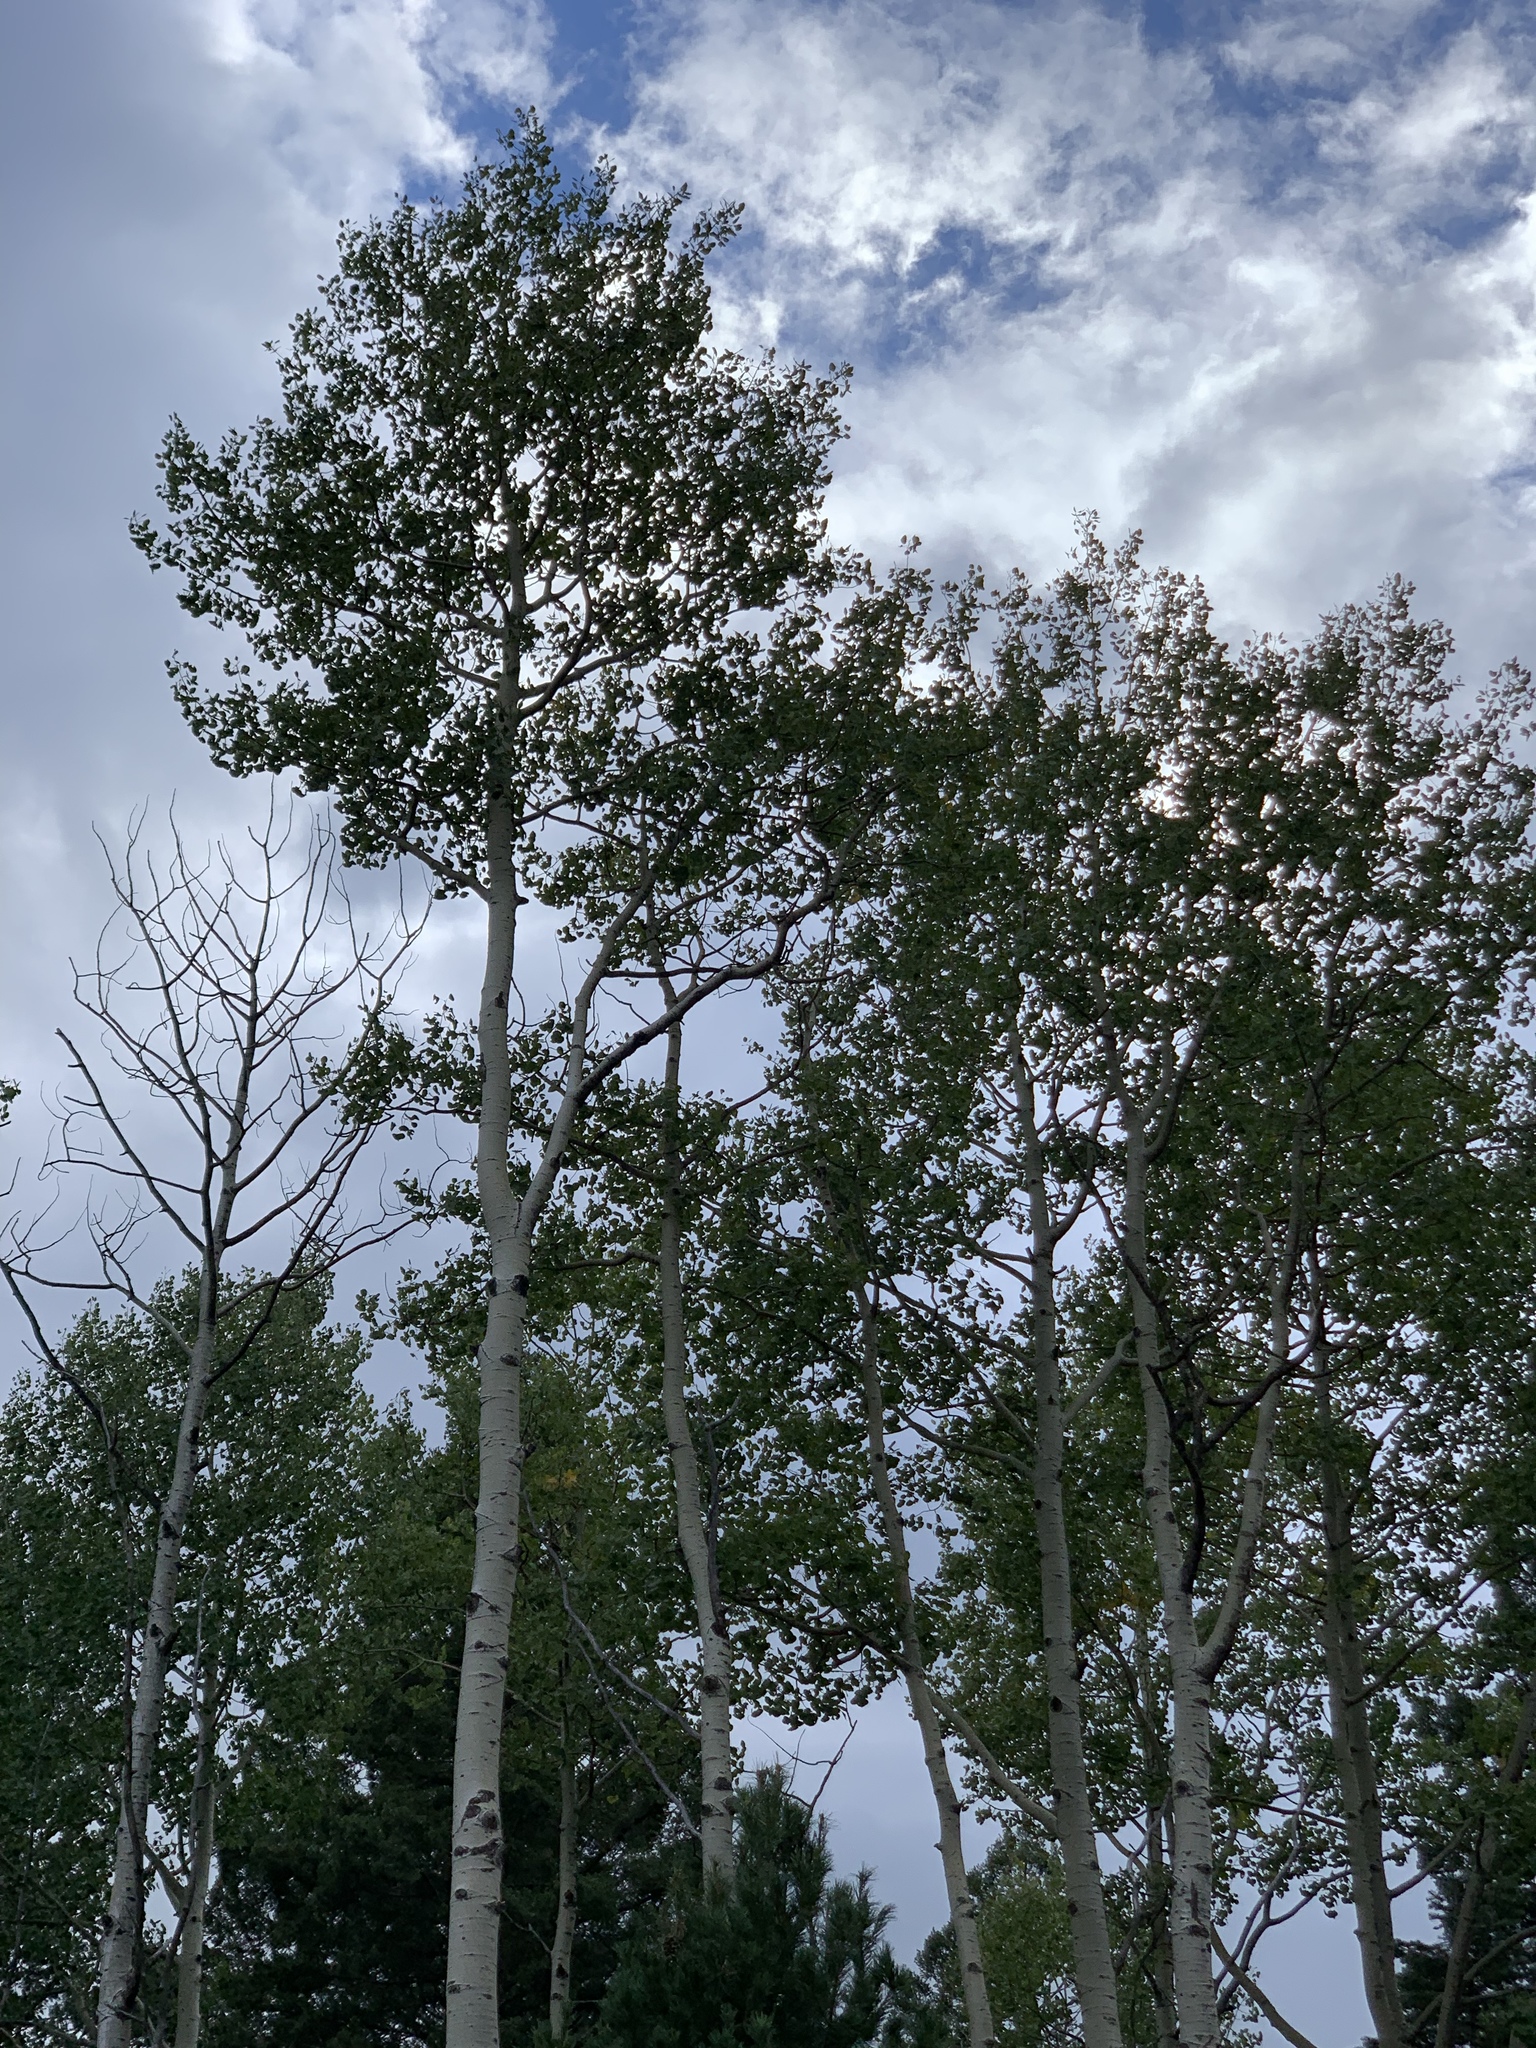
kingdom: Plantae
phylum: Tracheophyta
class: Magnoliopsida
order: Malpighiales
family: Salicaceae
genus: Populus
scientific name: Populus tremuloides
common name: Quaking aspen
